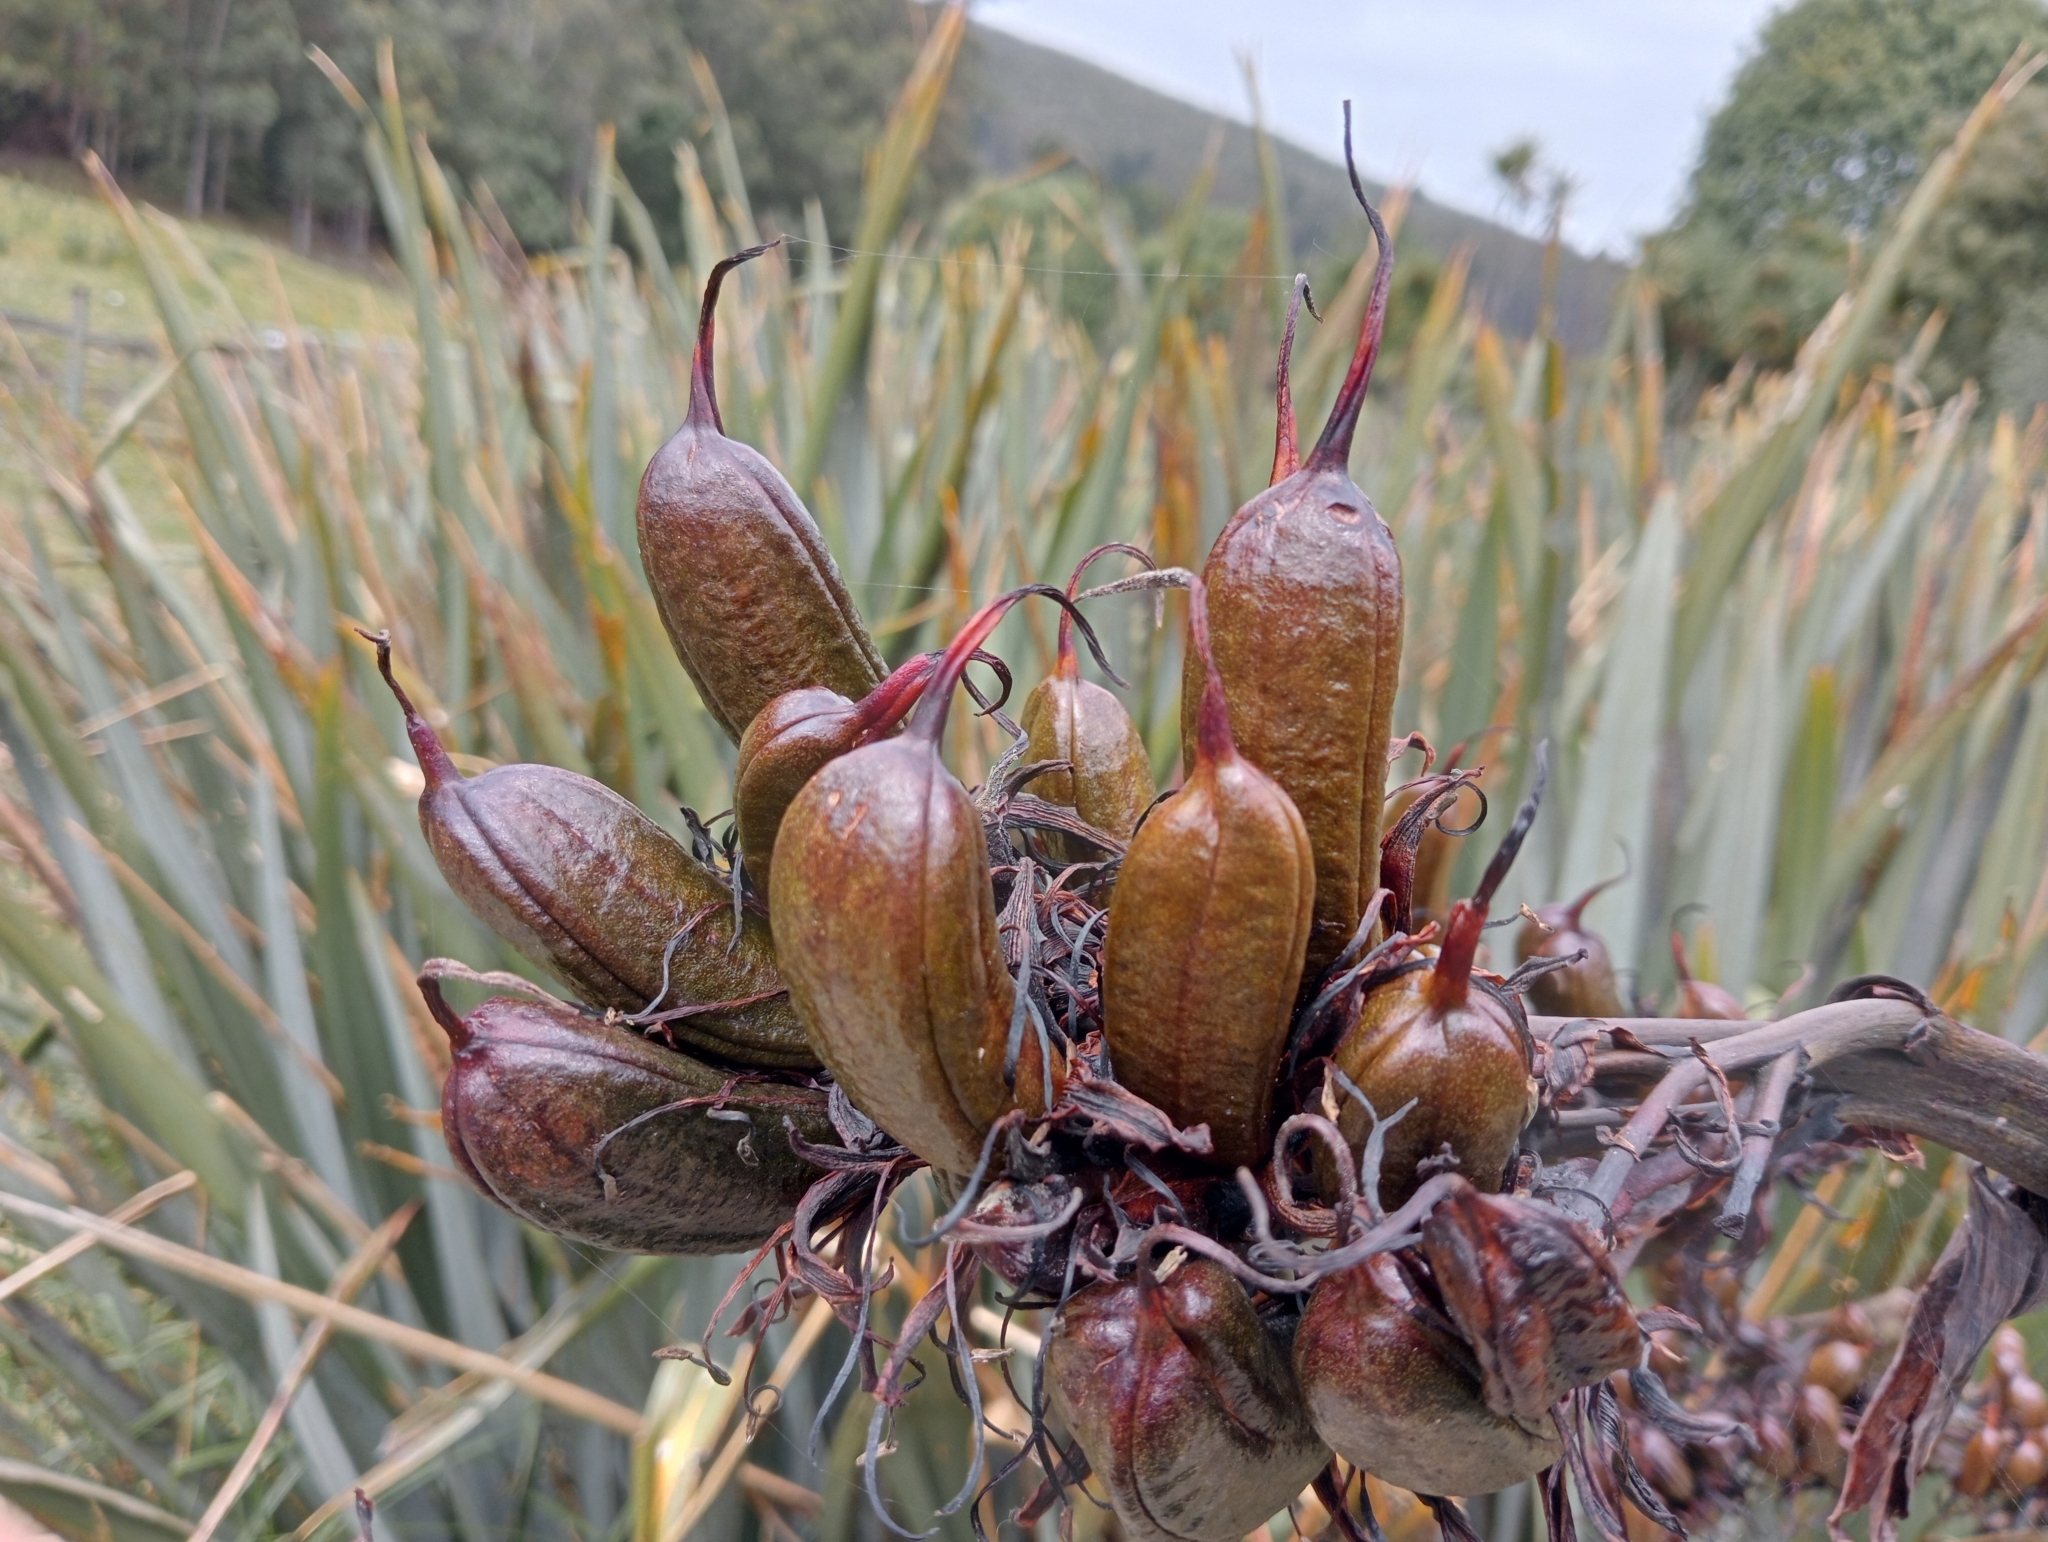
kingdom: Plantae
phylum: Tracheophyta
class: Liliopsida
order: Asparagales
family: Asphodelaceae
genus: Phormium
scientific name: Phormium tenax
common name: New zealand flax
